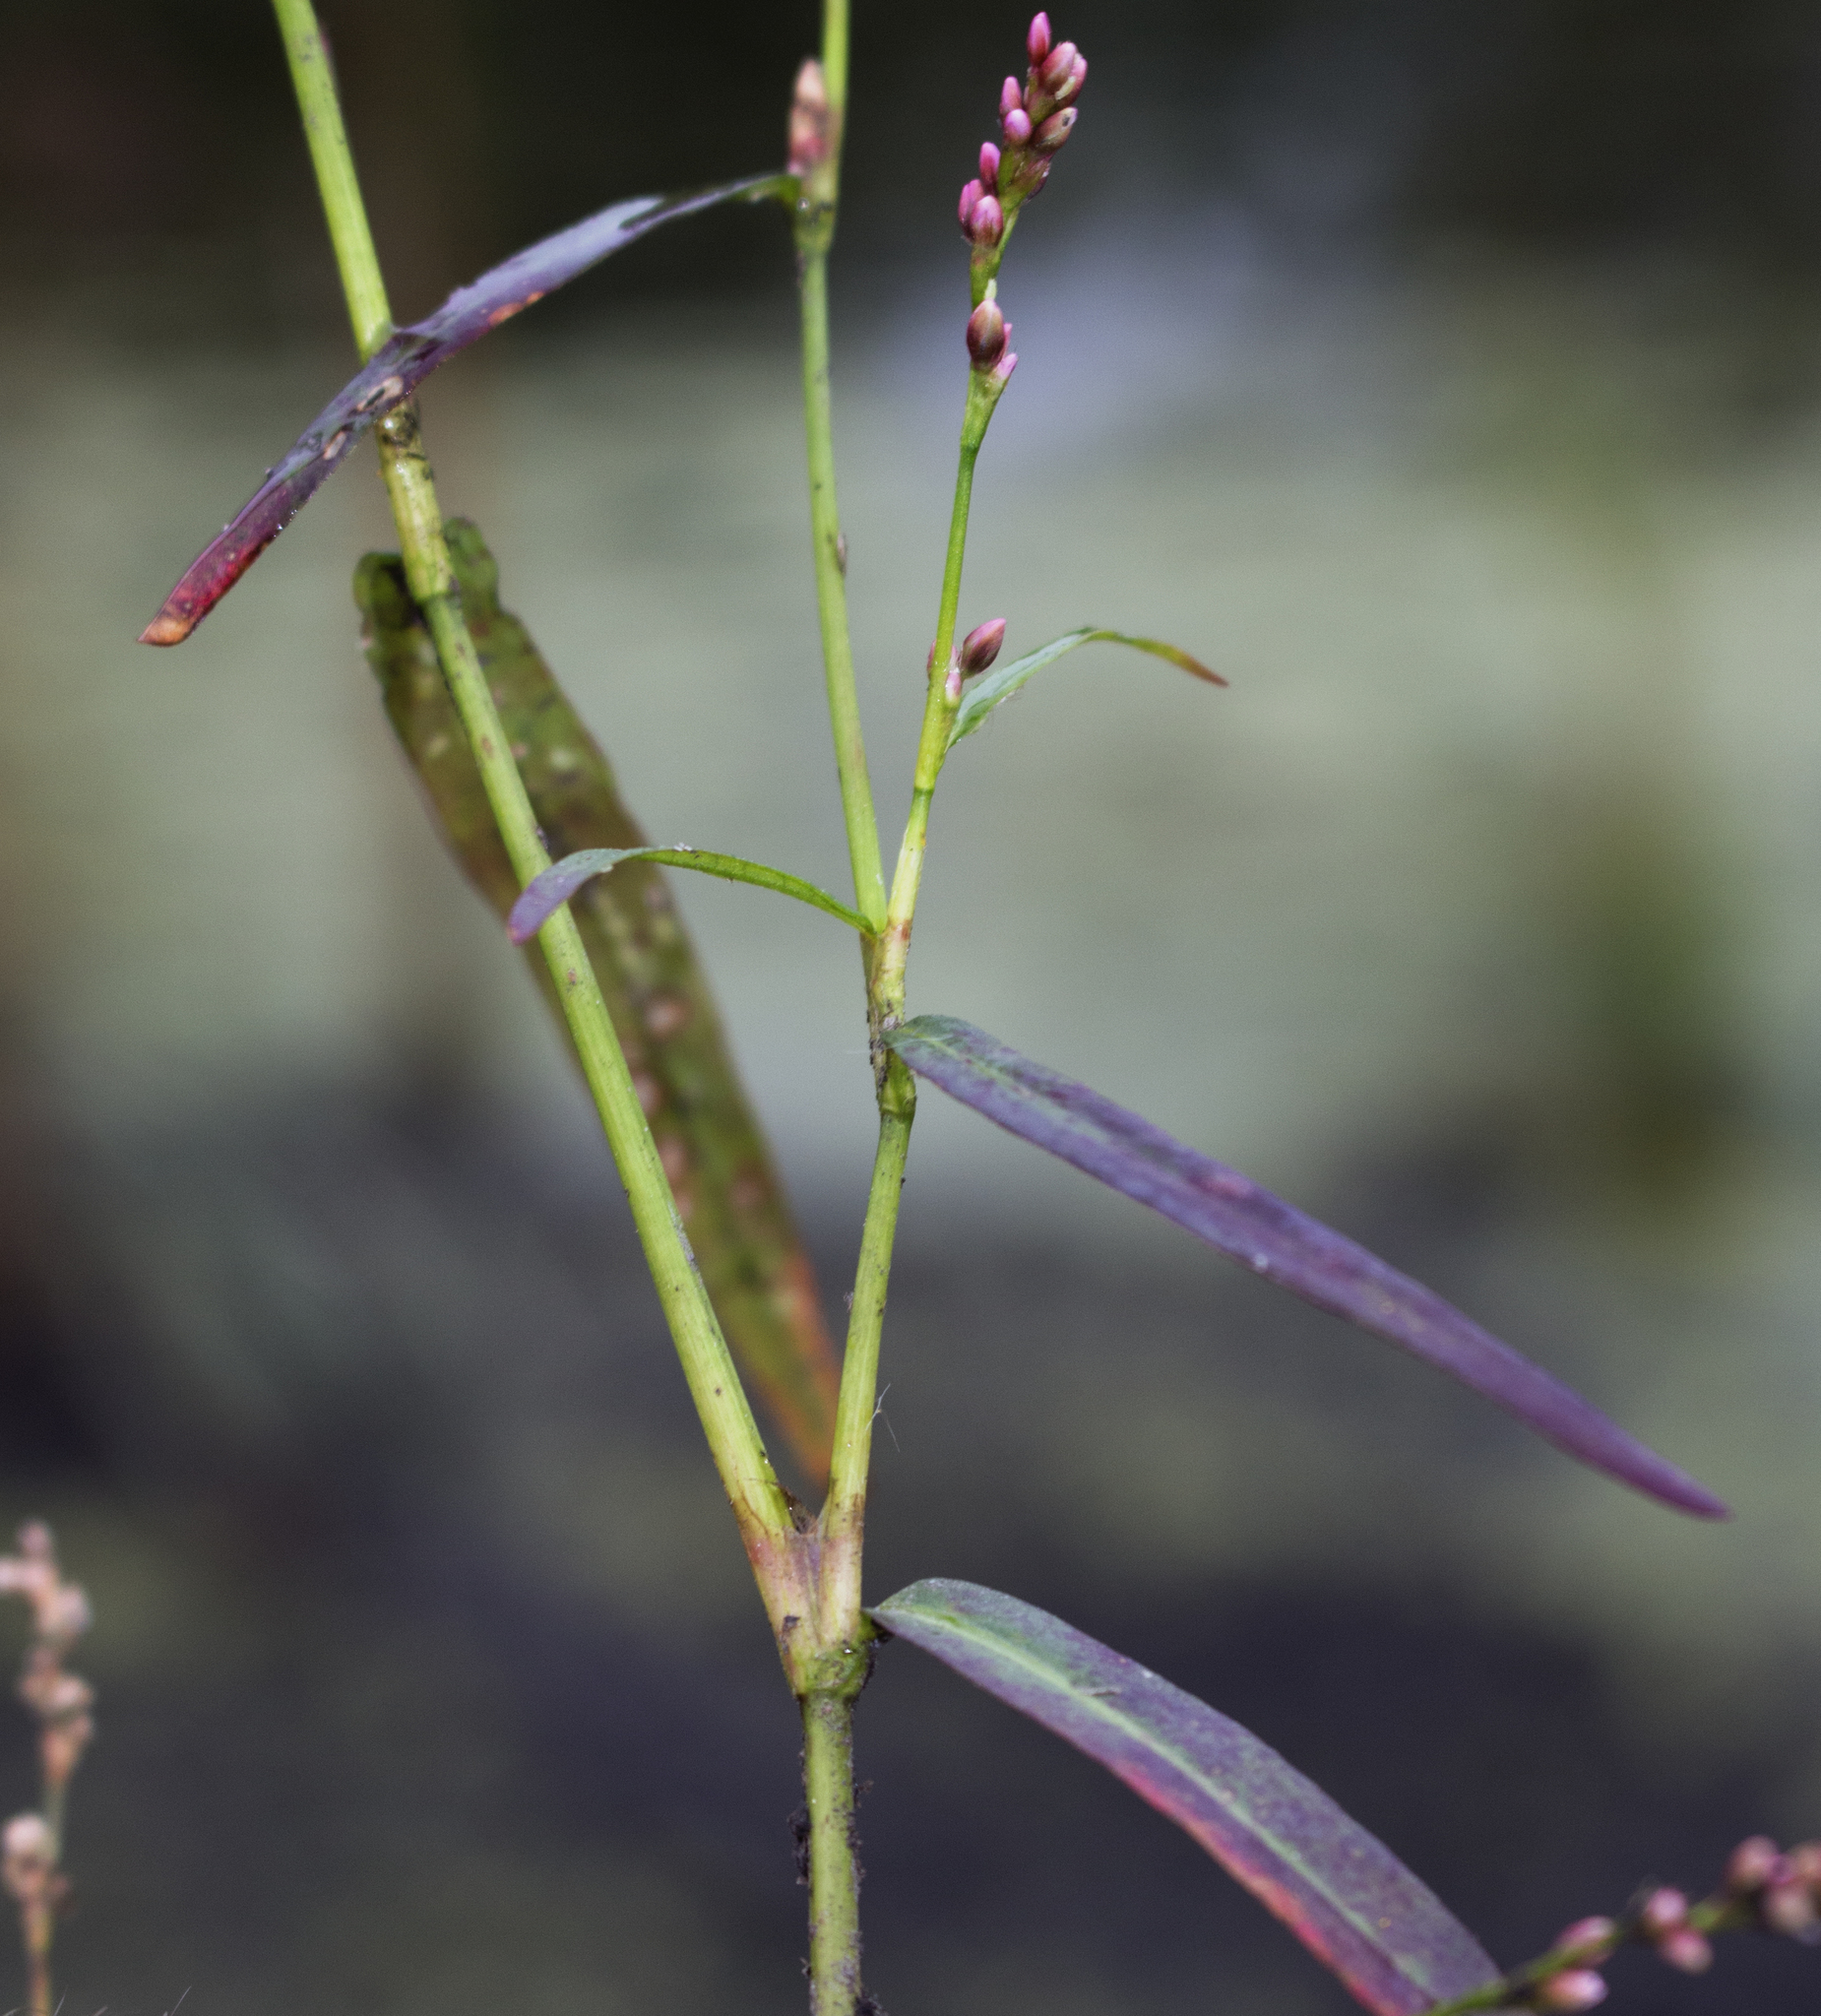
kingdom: Plantae
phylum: Tracheophyta
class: Magnoliopsida
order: Caryophyllales
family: Polygonaceae
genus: Persicaria
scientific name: Persicaria minor
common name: Small water-pepper
